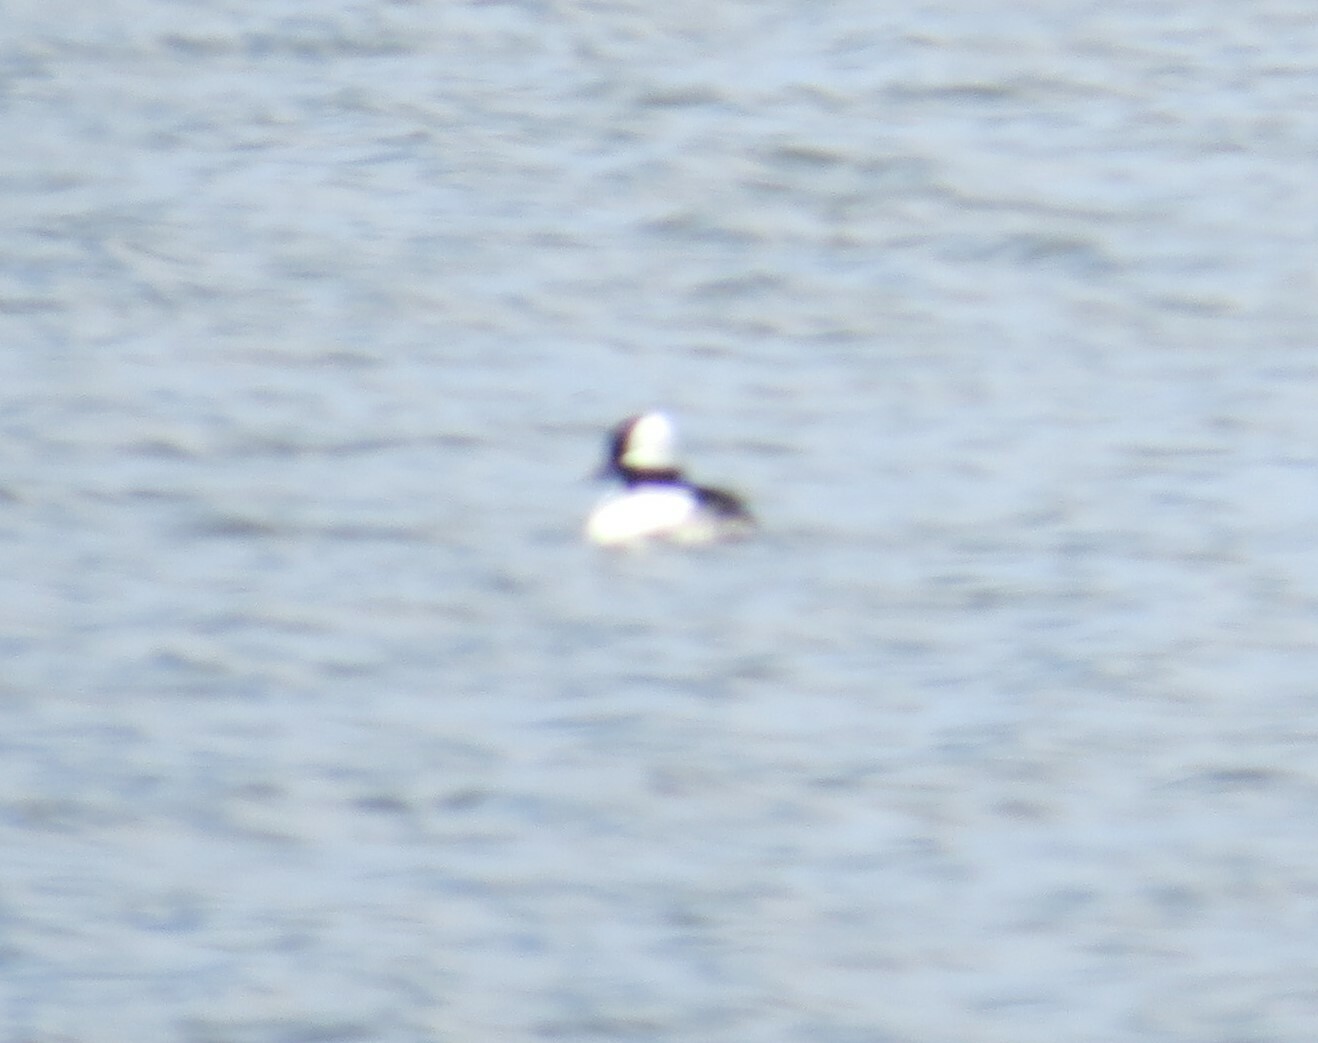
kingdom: Animalia
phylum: Chordata
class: Aves
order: Anseriformes
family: Anatidae
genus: Bucephala
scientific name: Bucephala albeola
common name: Bufflehead
